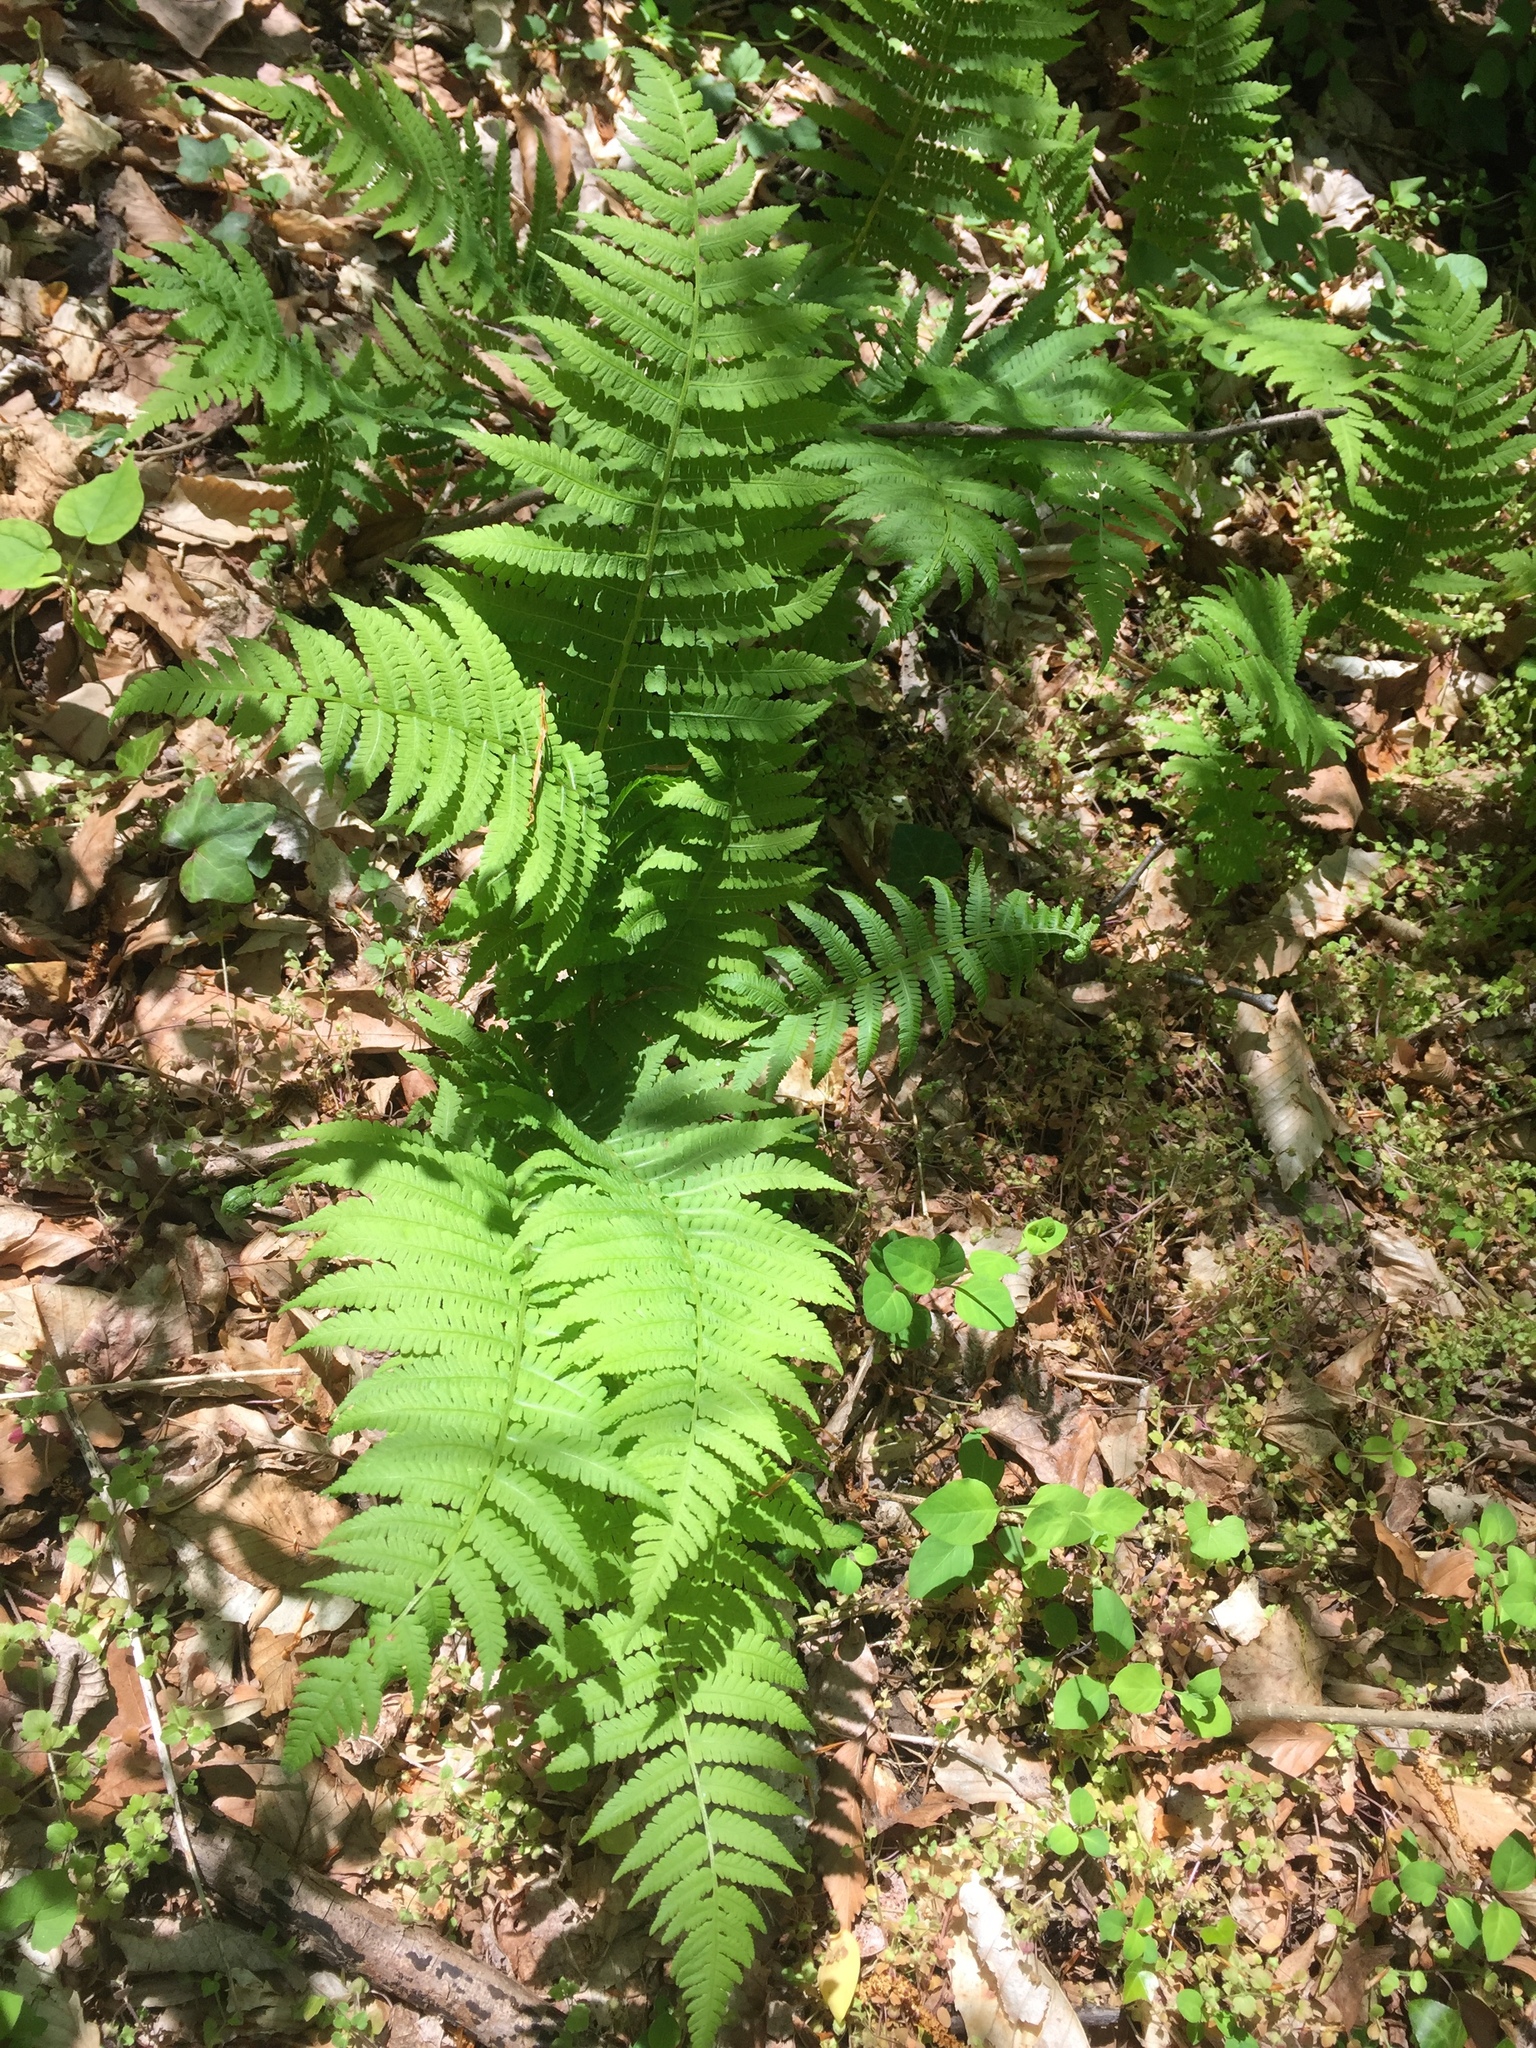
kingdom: Plantae
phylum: Tracheophyta
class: Polypodiopsida
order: Polypodiales
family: Athyriaceae
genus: Deparia
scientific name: Deparia acrostichoides
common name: Silver false spleenwort
